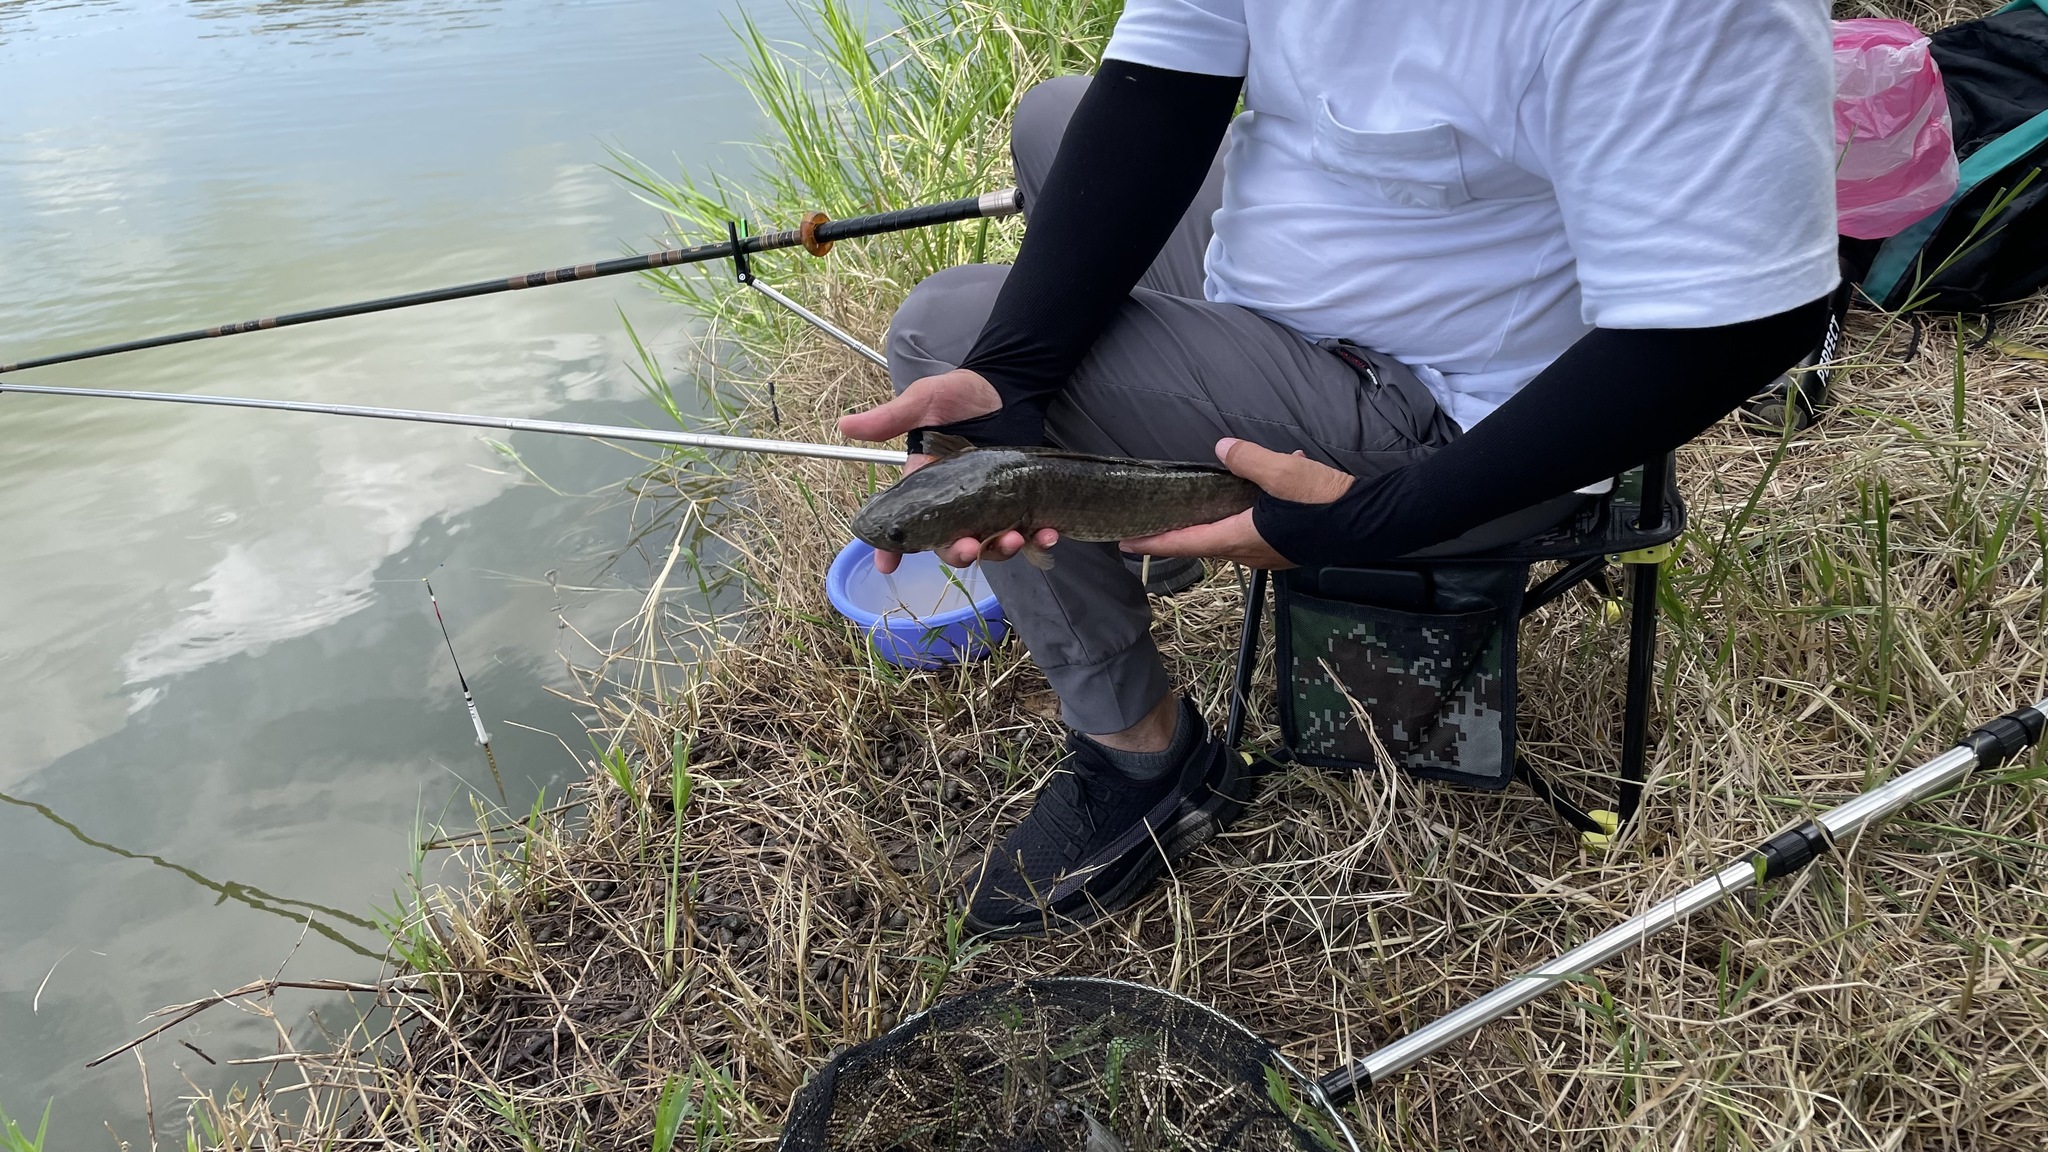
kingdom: Animalia
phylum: Chordata
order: Perciformes
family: Channidae
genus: Channa
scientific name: Channa striata
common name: Striped snakehead
